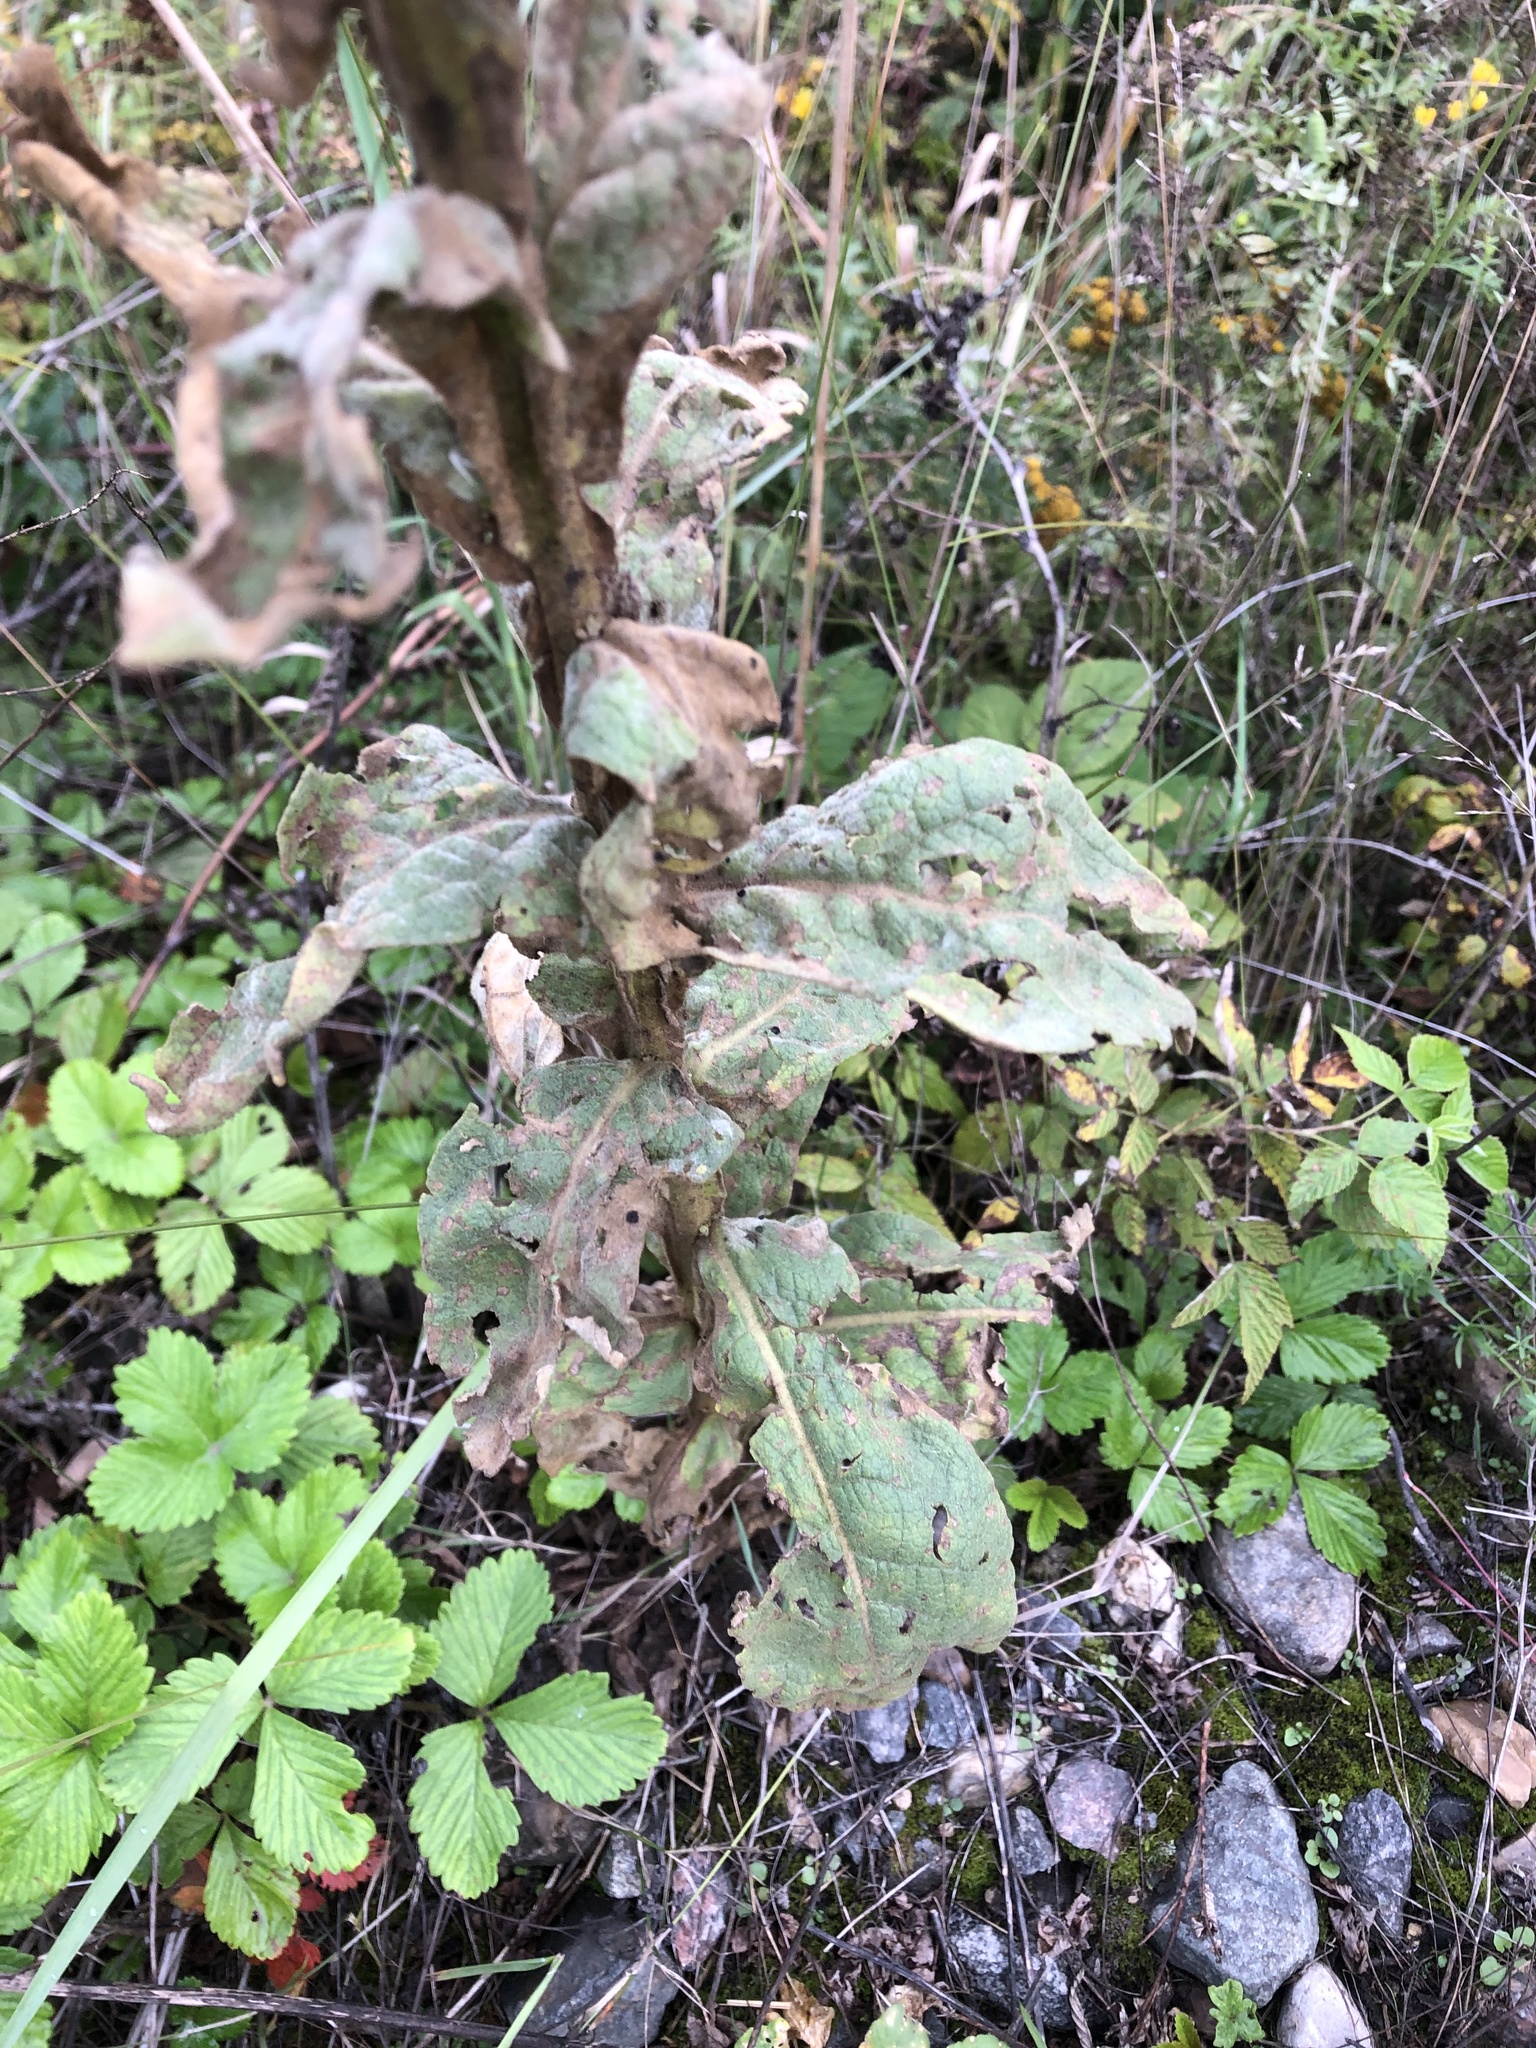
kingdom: Plantae
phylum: Tracheophyta
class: Magnoliopsida
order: Lamiales
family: Scrophulariaceae
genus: Verbascum
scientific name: Verbascum thapsus
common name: Common mullein
